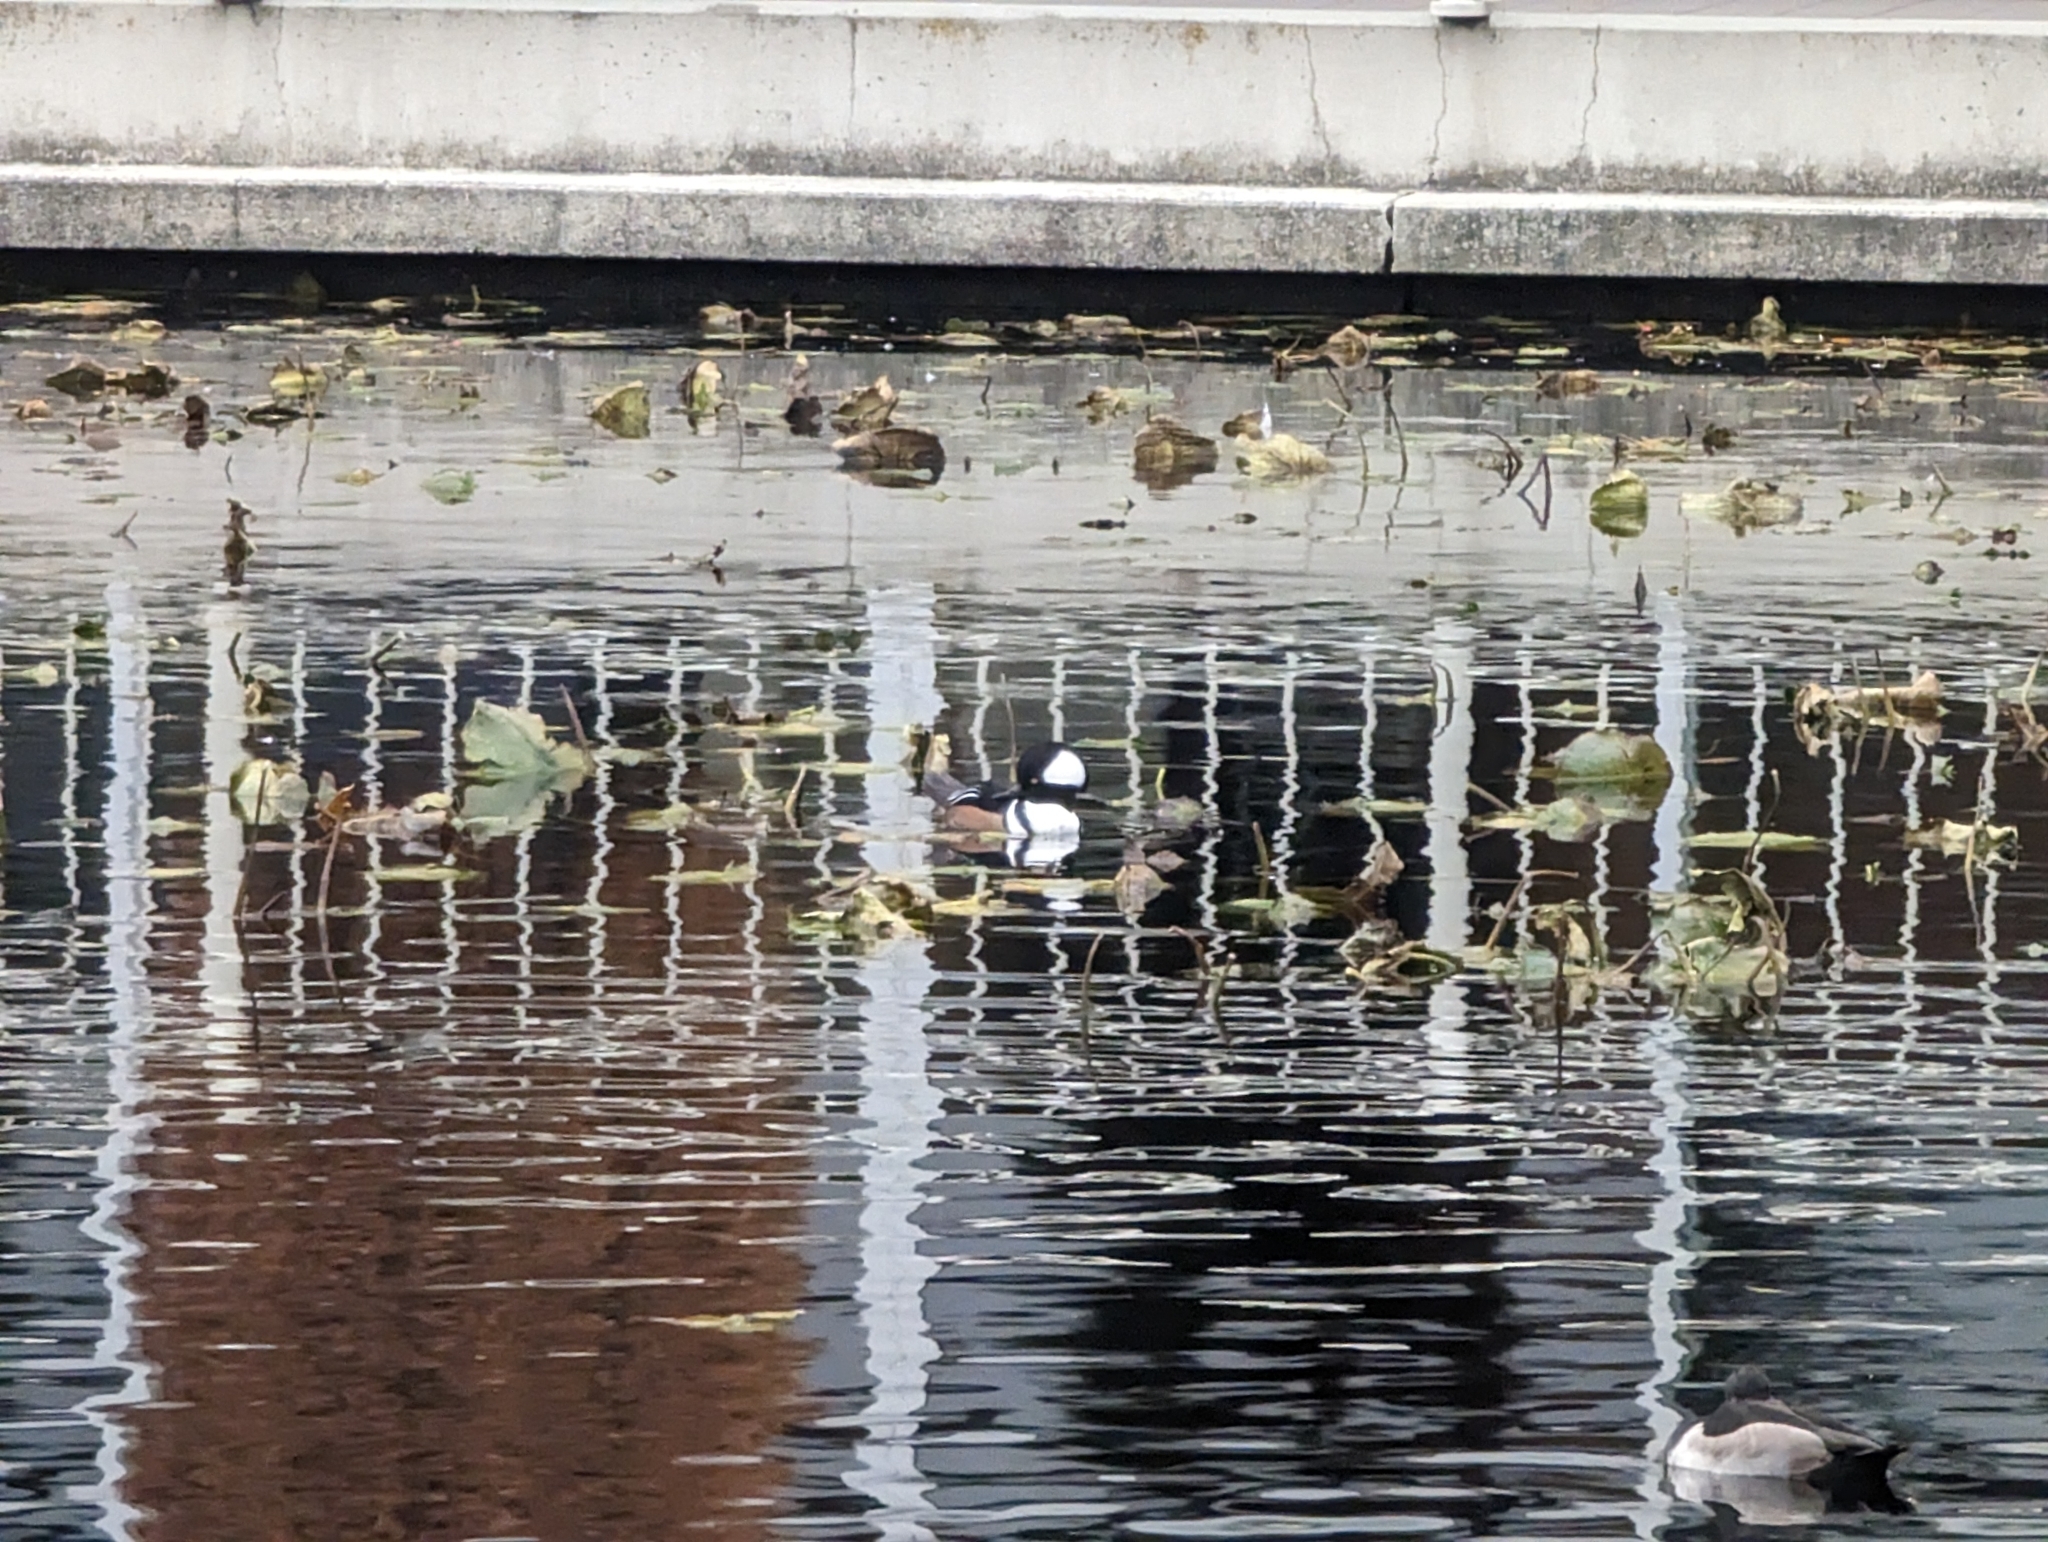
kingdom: Animalia
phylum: Chordata
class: Aves
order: Anseriformes
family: Anatidae
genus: Lophodytes
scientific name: Lophodytes cucullatus
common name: Hooded merganser
